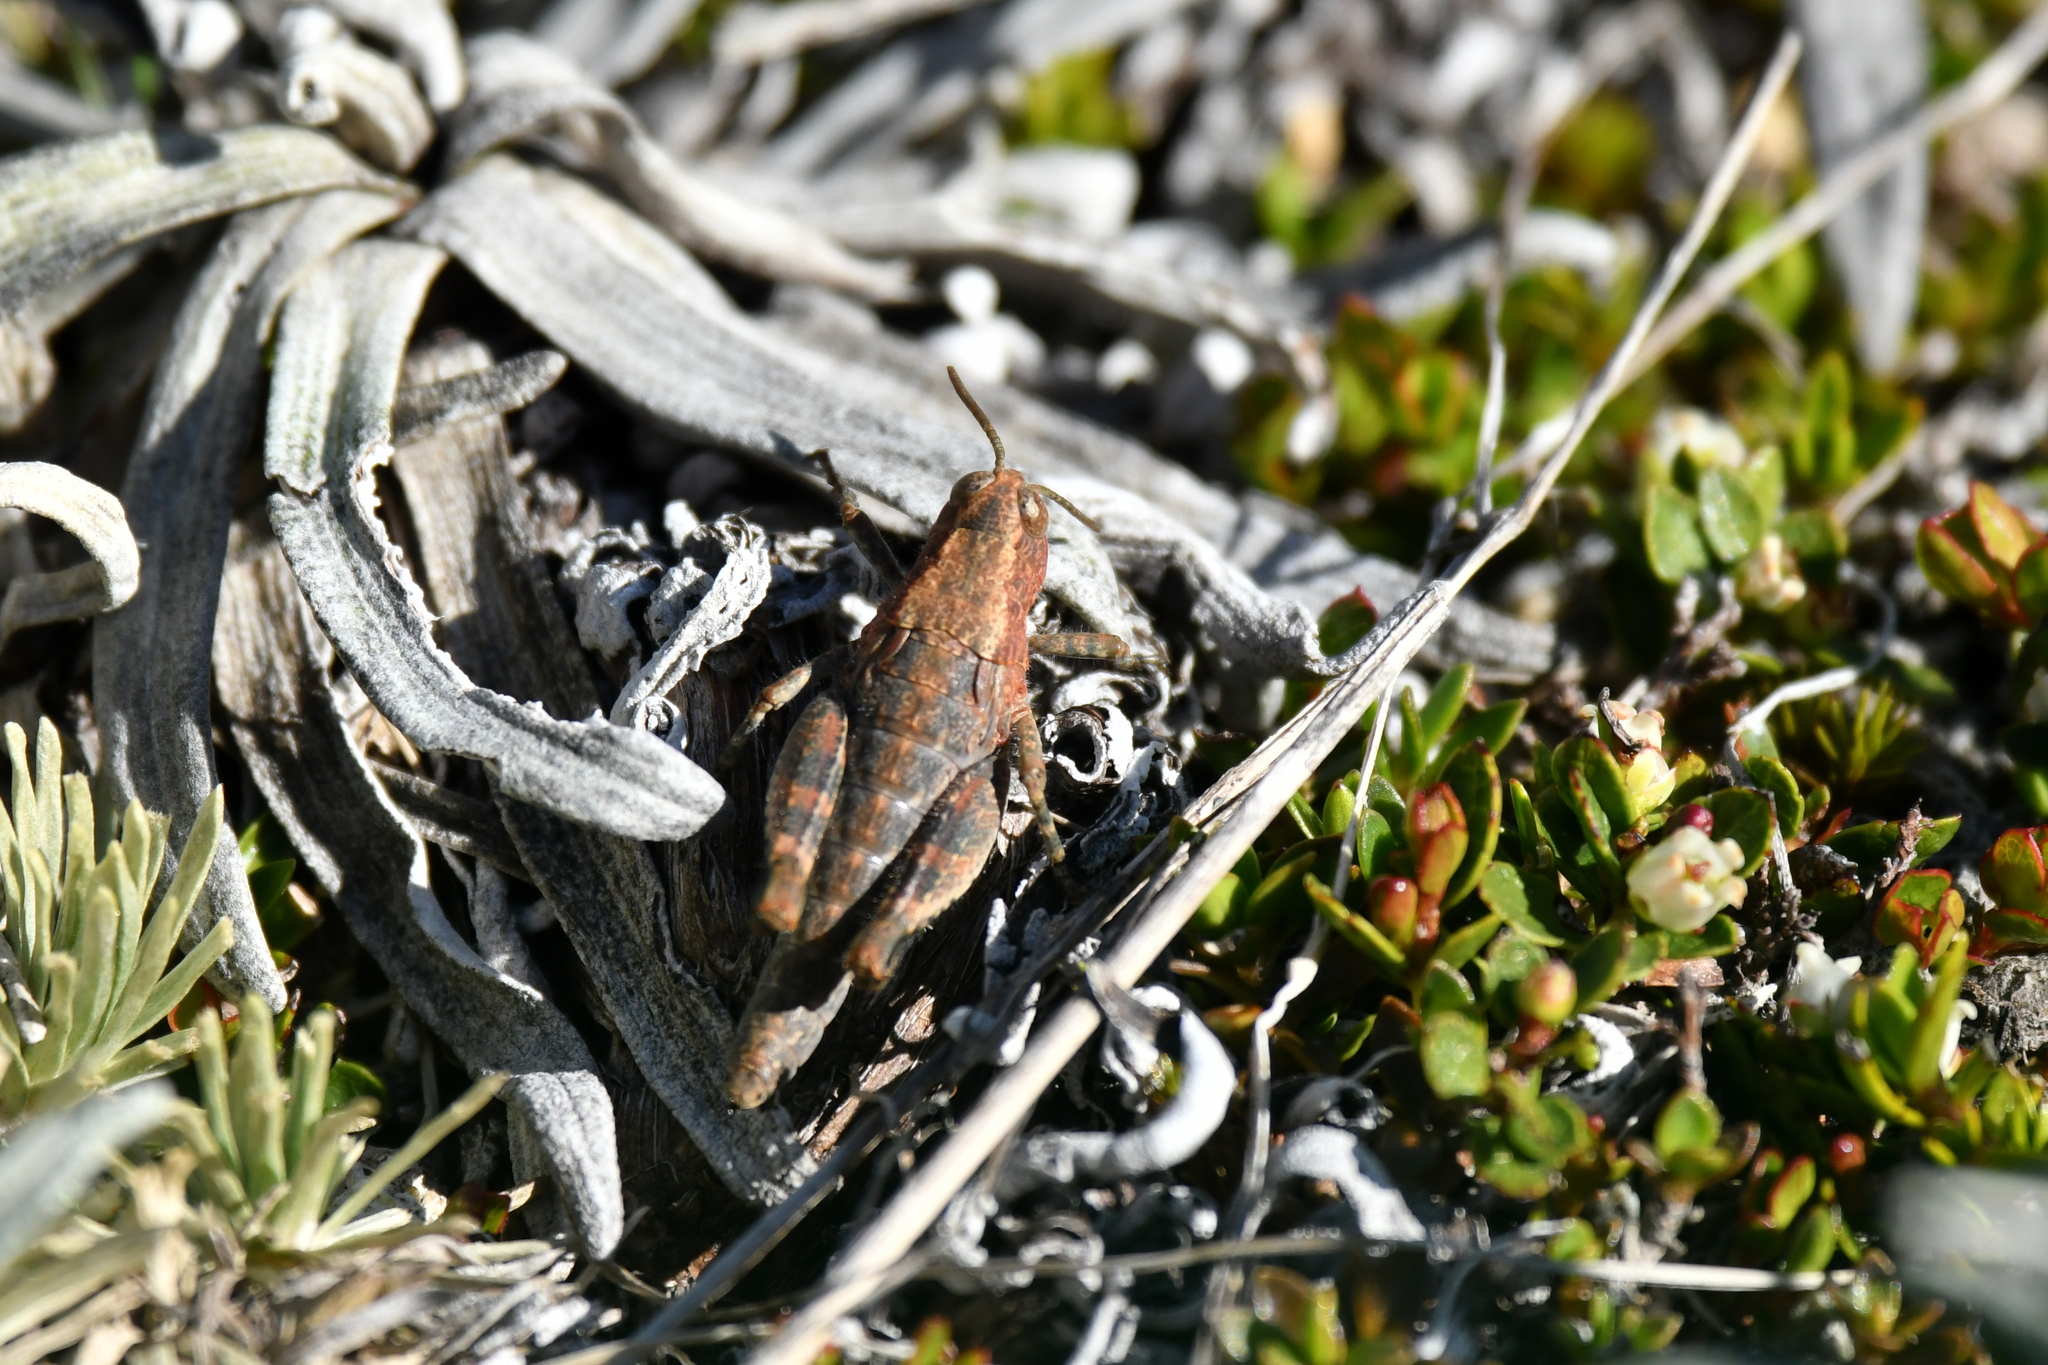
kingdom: Animalia
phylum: Arthropoda
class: Insecta
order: Orthoptera
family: Acrididae
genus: Sigaus
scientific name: Sigaus
